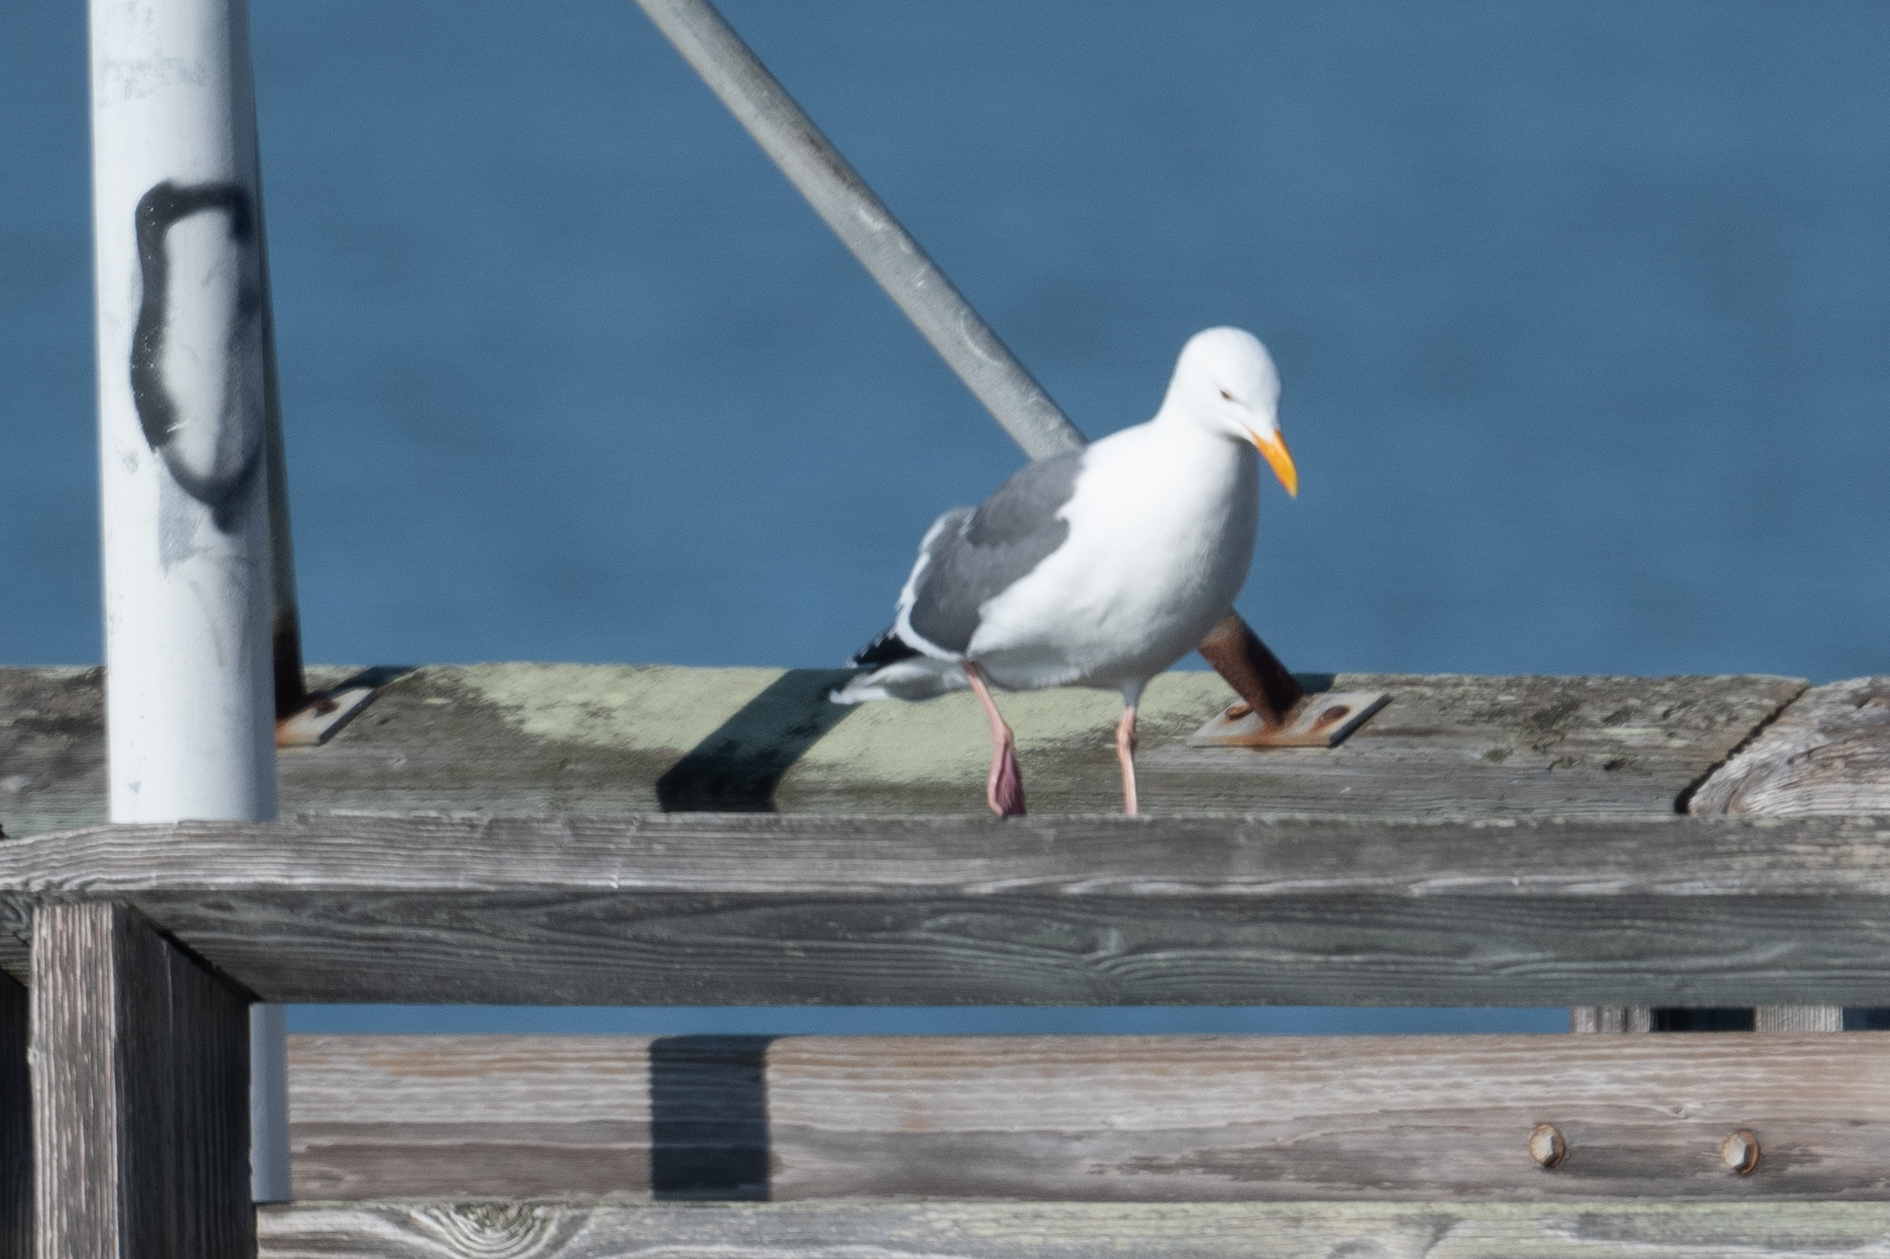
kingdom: Animalia
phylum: Chordata
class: Aves
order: Charadriiformes
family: Laridae
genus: Larus
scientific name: Larus occidentalis
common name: Western gull
